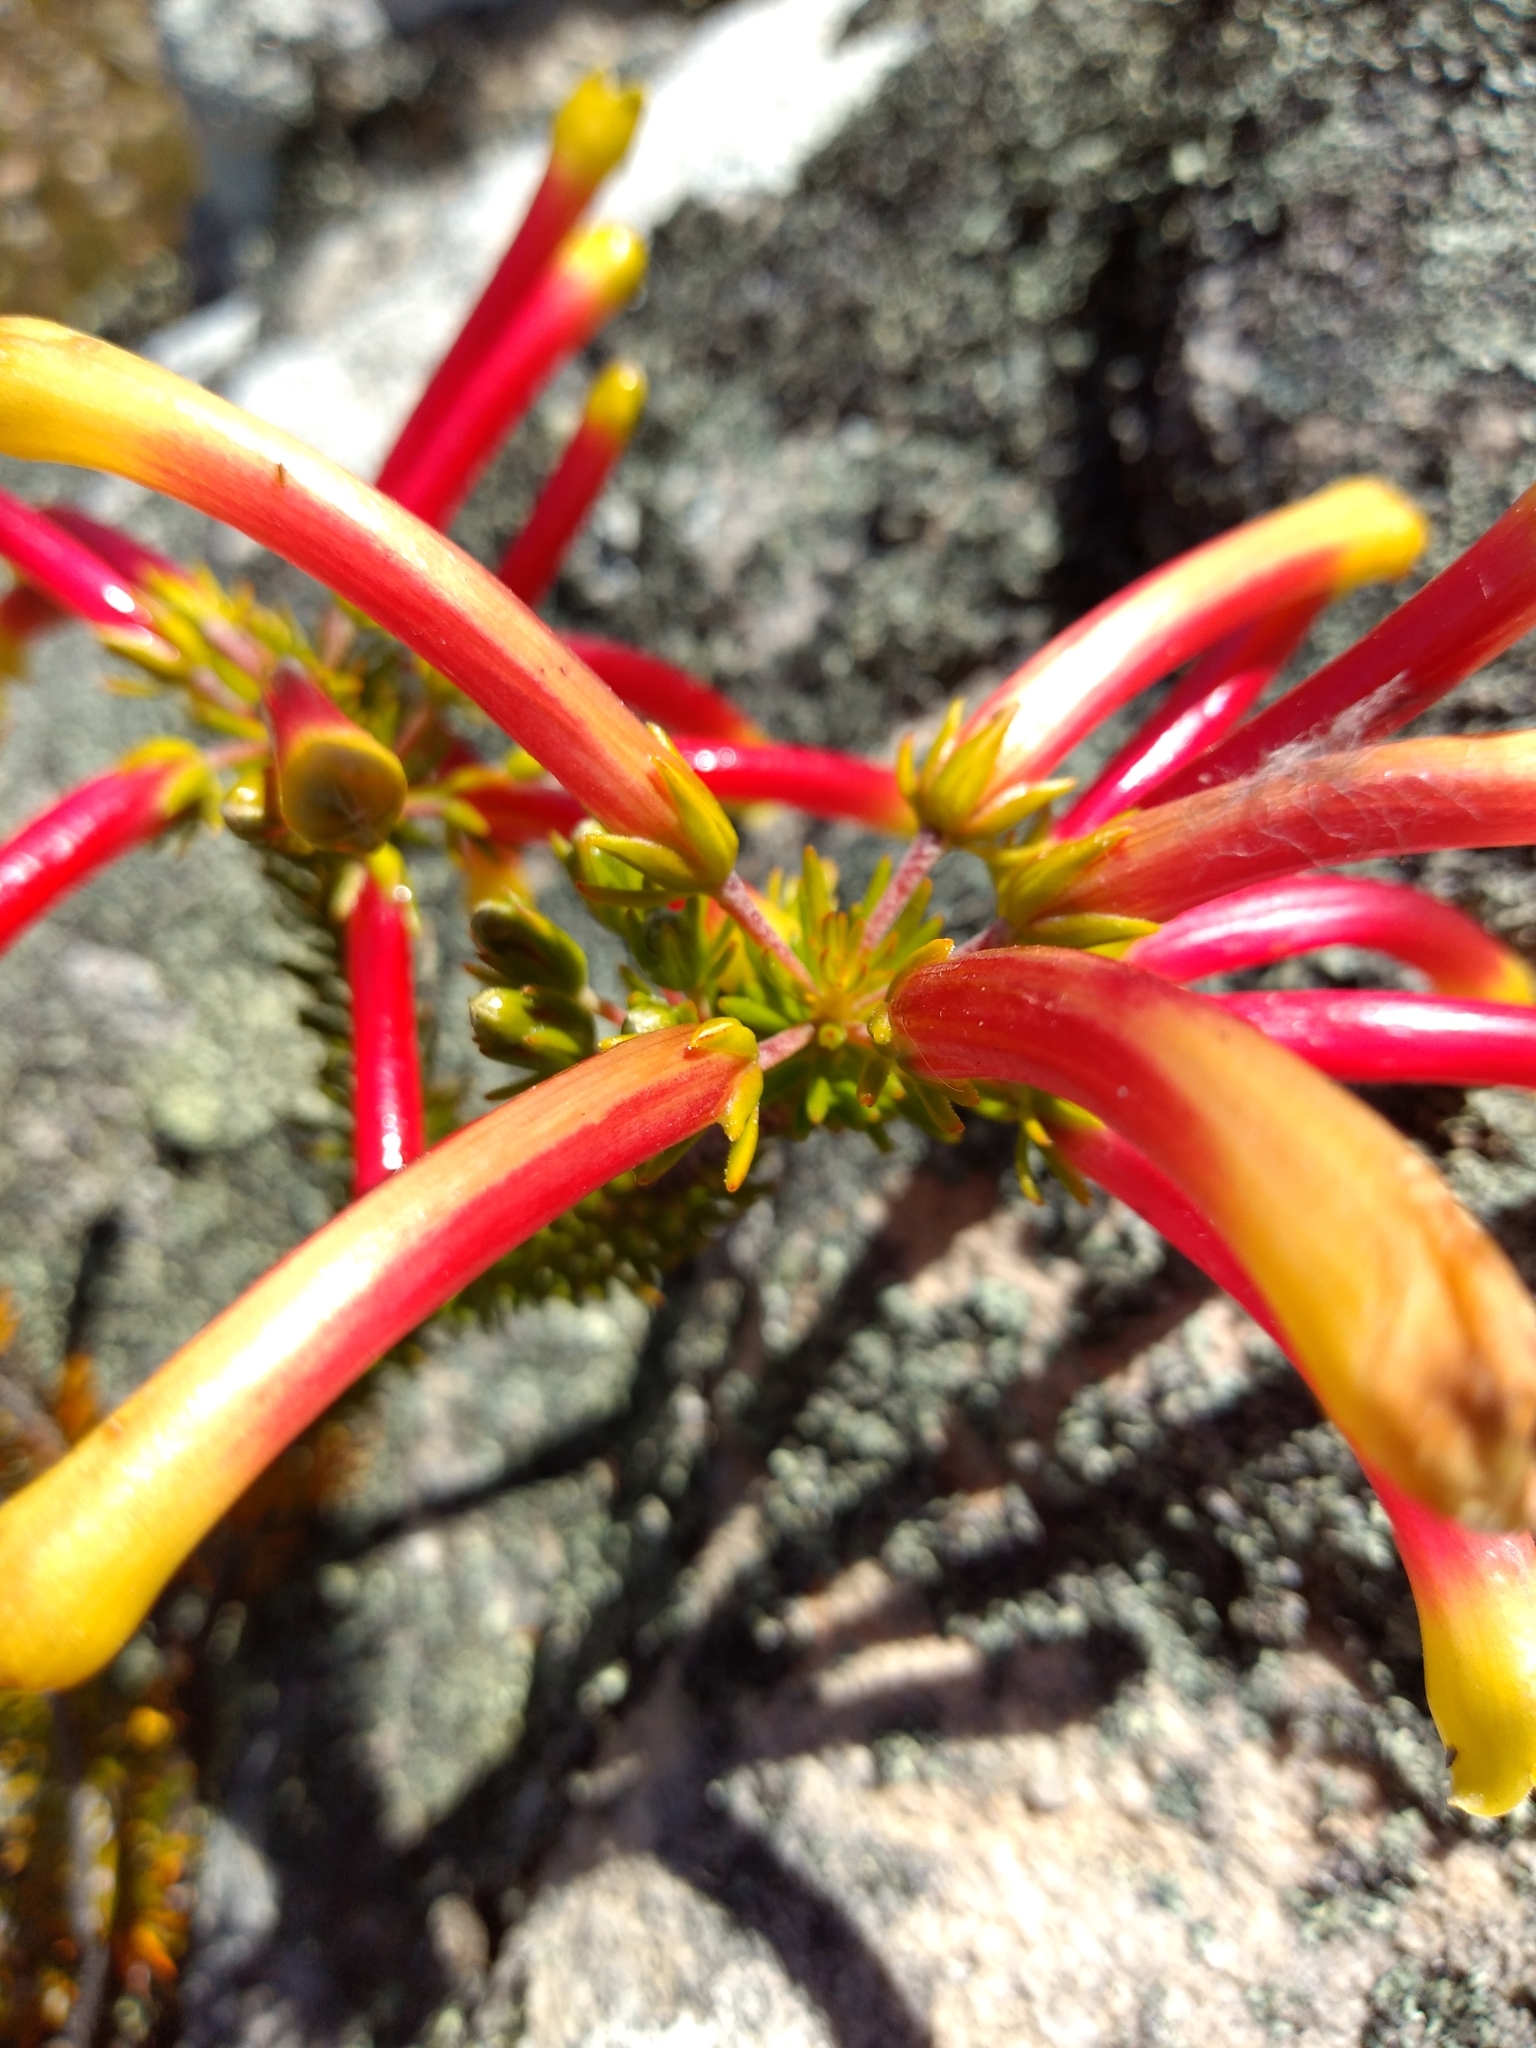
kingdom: Plantae
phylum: Tracheophyta
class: Magnoliopsida
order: Ericales
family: Ericaceae
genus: Erica
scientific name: Erica hibbertia
